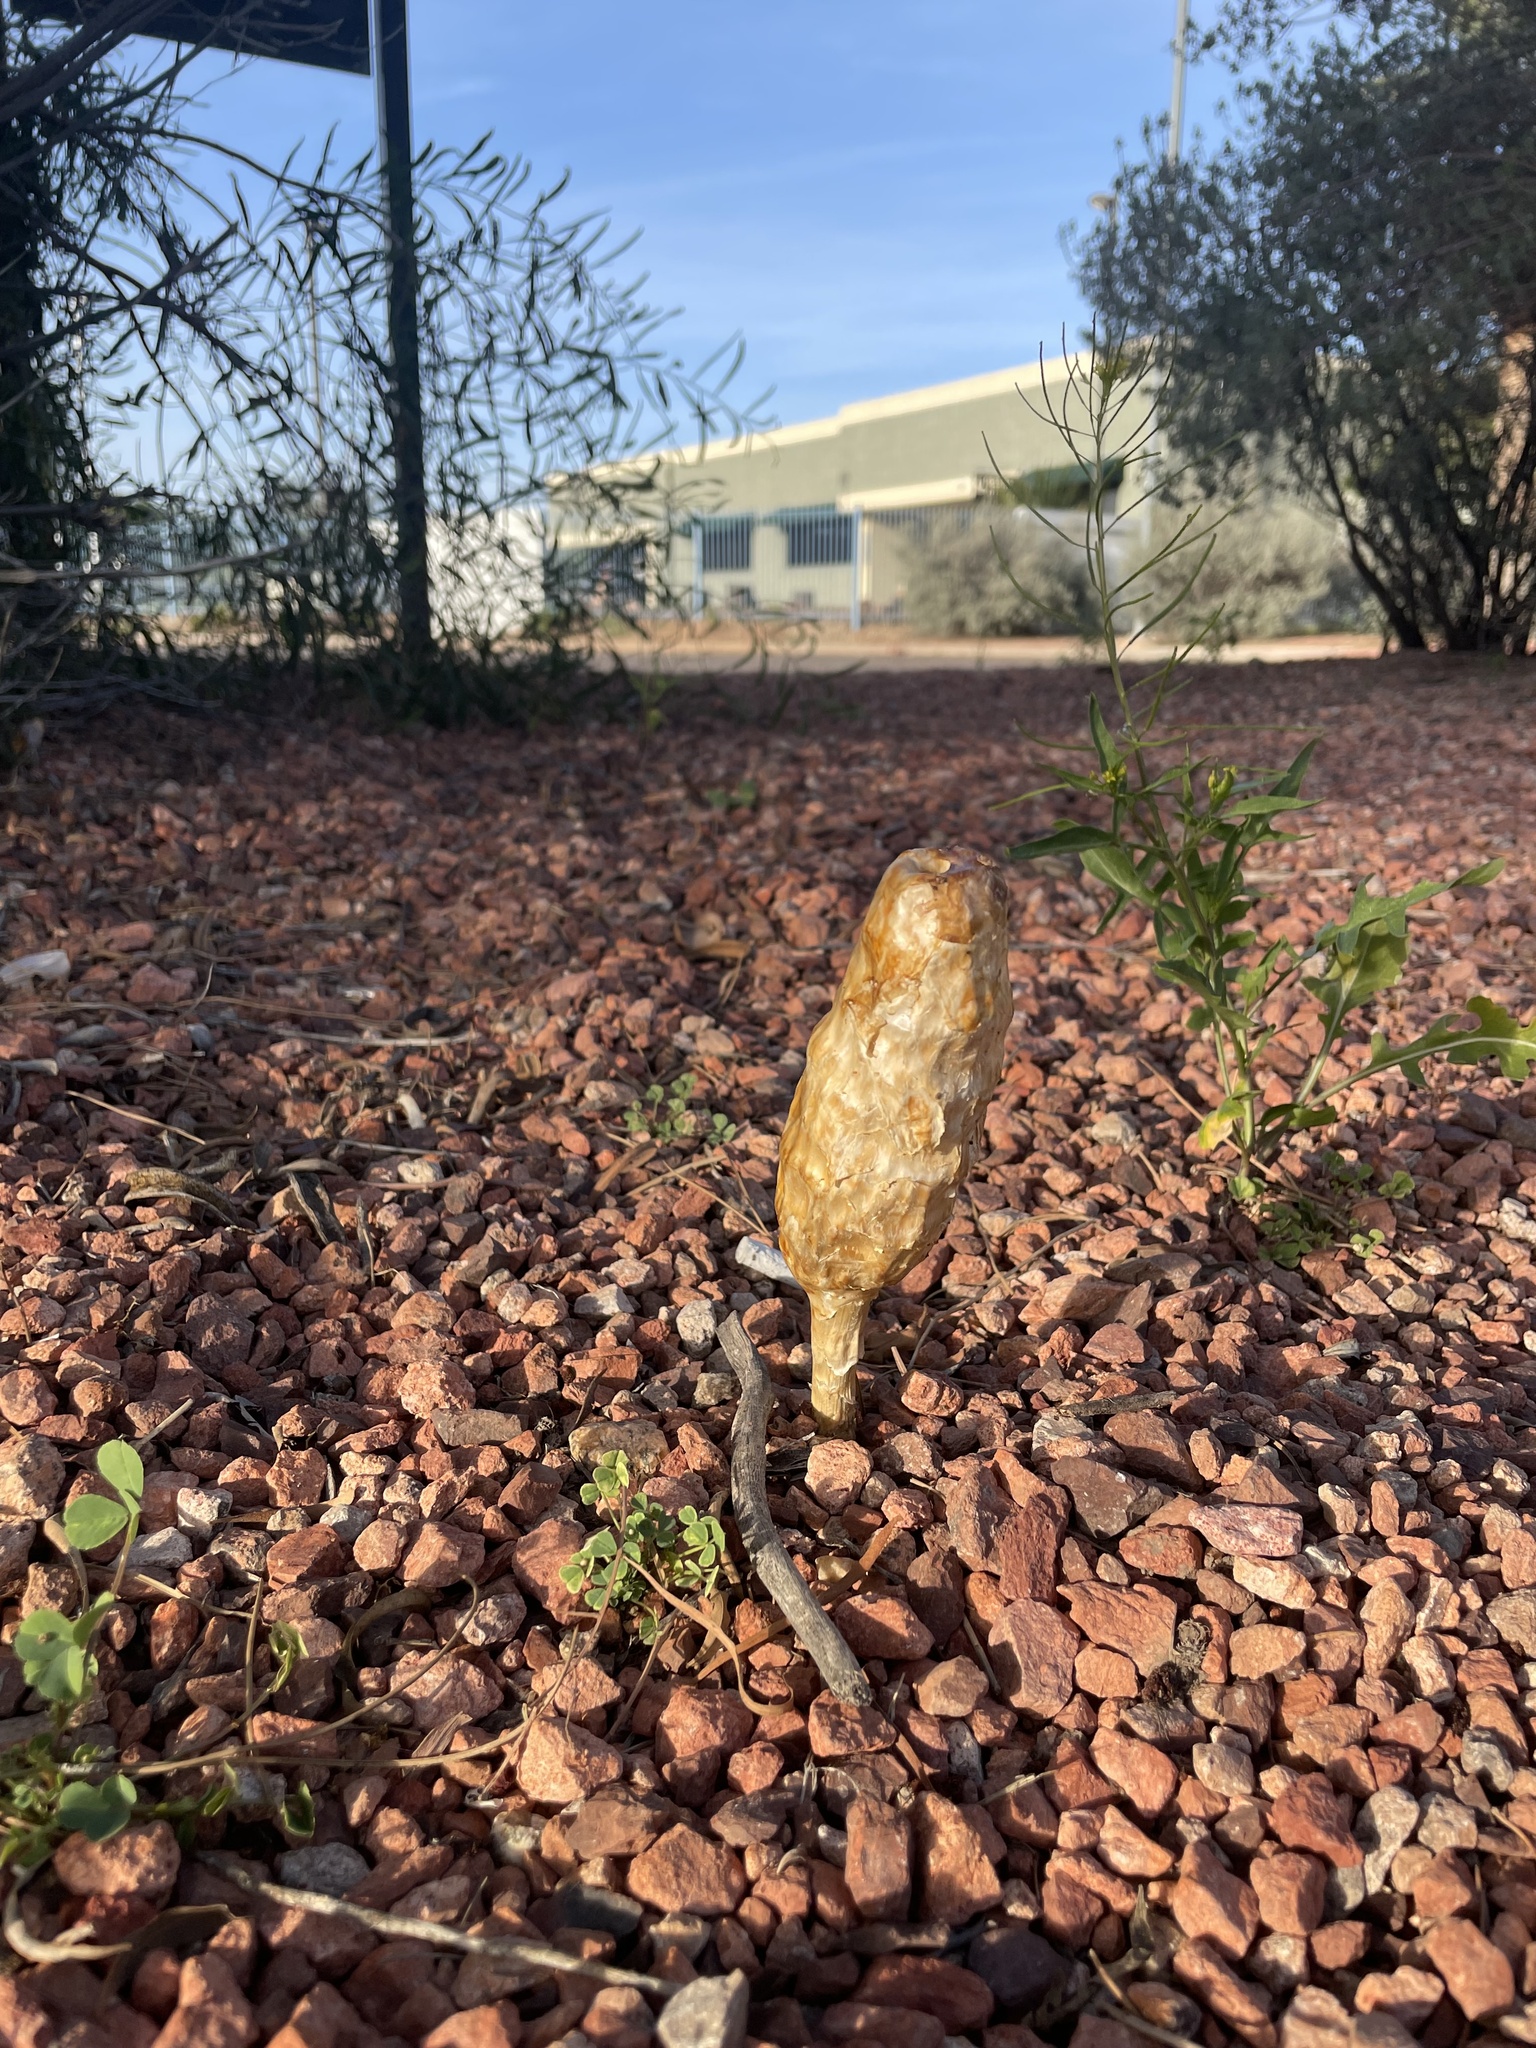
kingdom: Fungi
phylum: Basidiomycota
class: Agaricomycetes
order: Agaricales
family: Agaricaceae
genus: Podaxis
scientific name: Podaxis pistillaris
